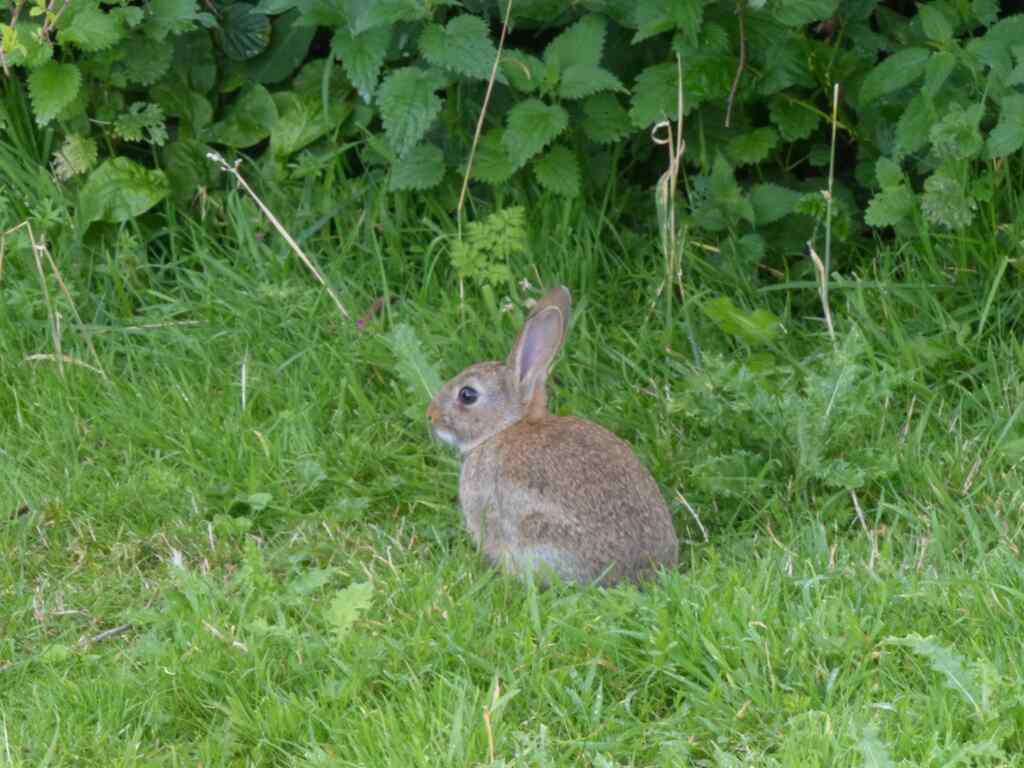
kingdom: Animalia
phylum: Chordata
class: Mammalia
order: Lagomorpha
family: Leporidae
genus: Oryctolagus
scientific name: Oryctolagus cuniculus
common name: European rabbit
